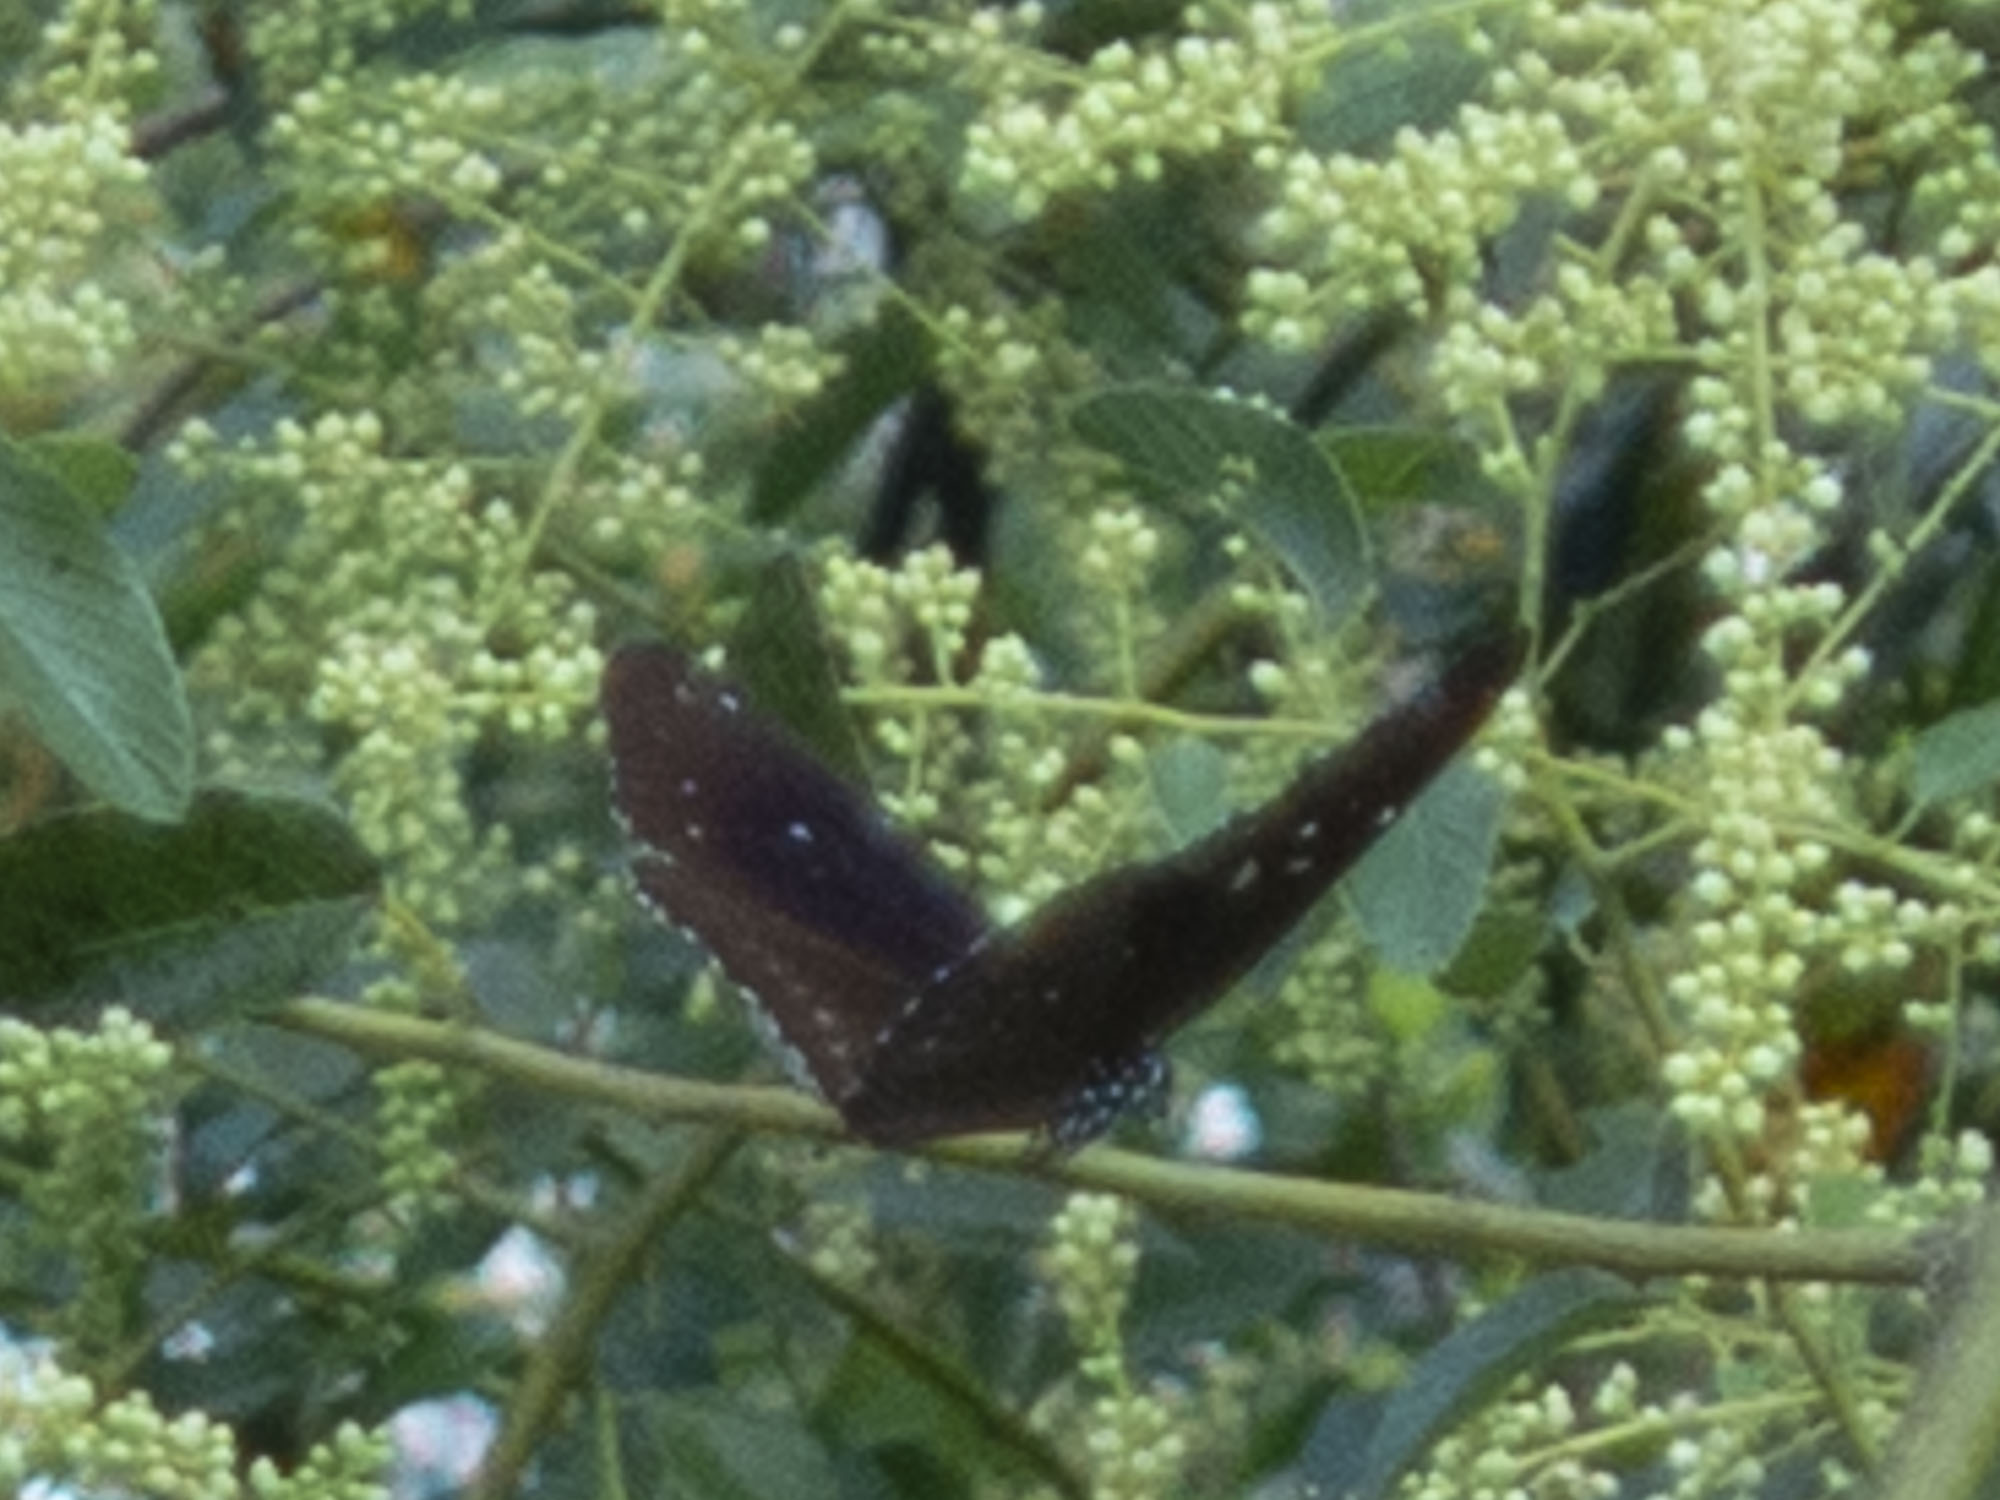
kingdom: Animalia
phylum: Arthropoda
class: Insecta
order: Lepidoptera
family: Nymphalidae
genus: Euploea
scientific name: Euploea core
